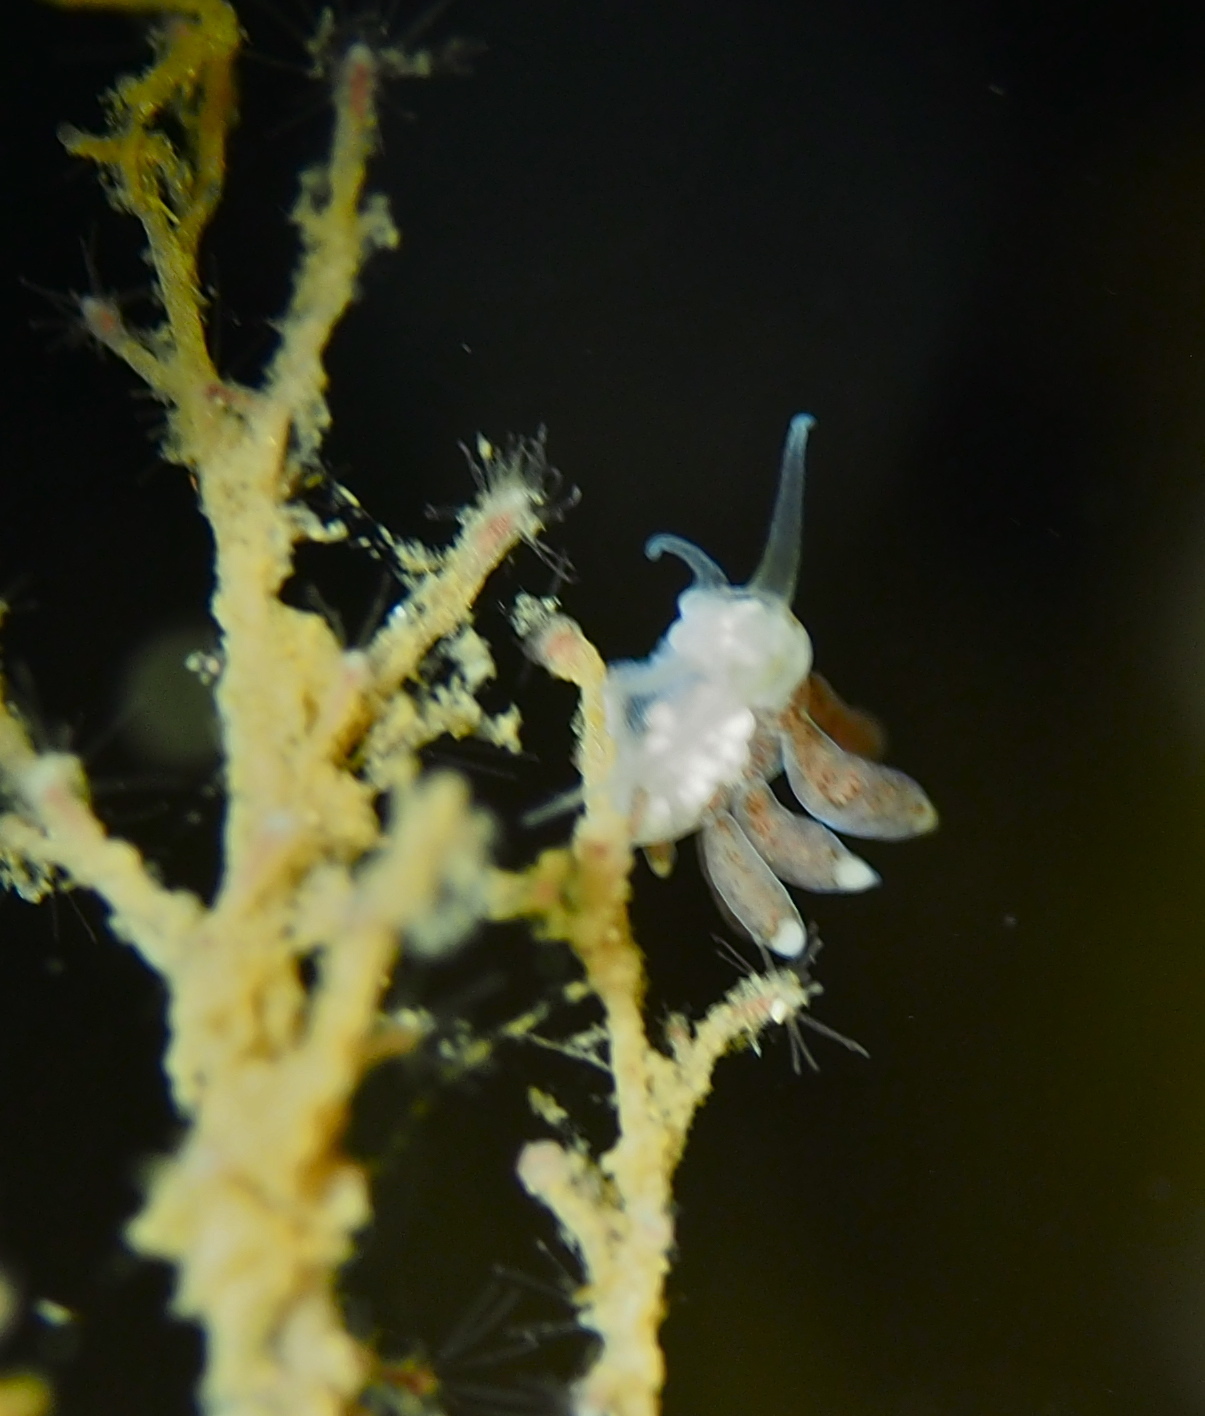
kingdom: Animalia
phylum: Mollusca
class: Gastropoda
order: Nudibranchia
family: Tergipedidae
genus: Tergipes
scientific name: Tergipes tergipes
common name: Johnston's balloon eolis
